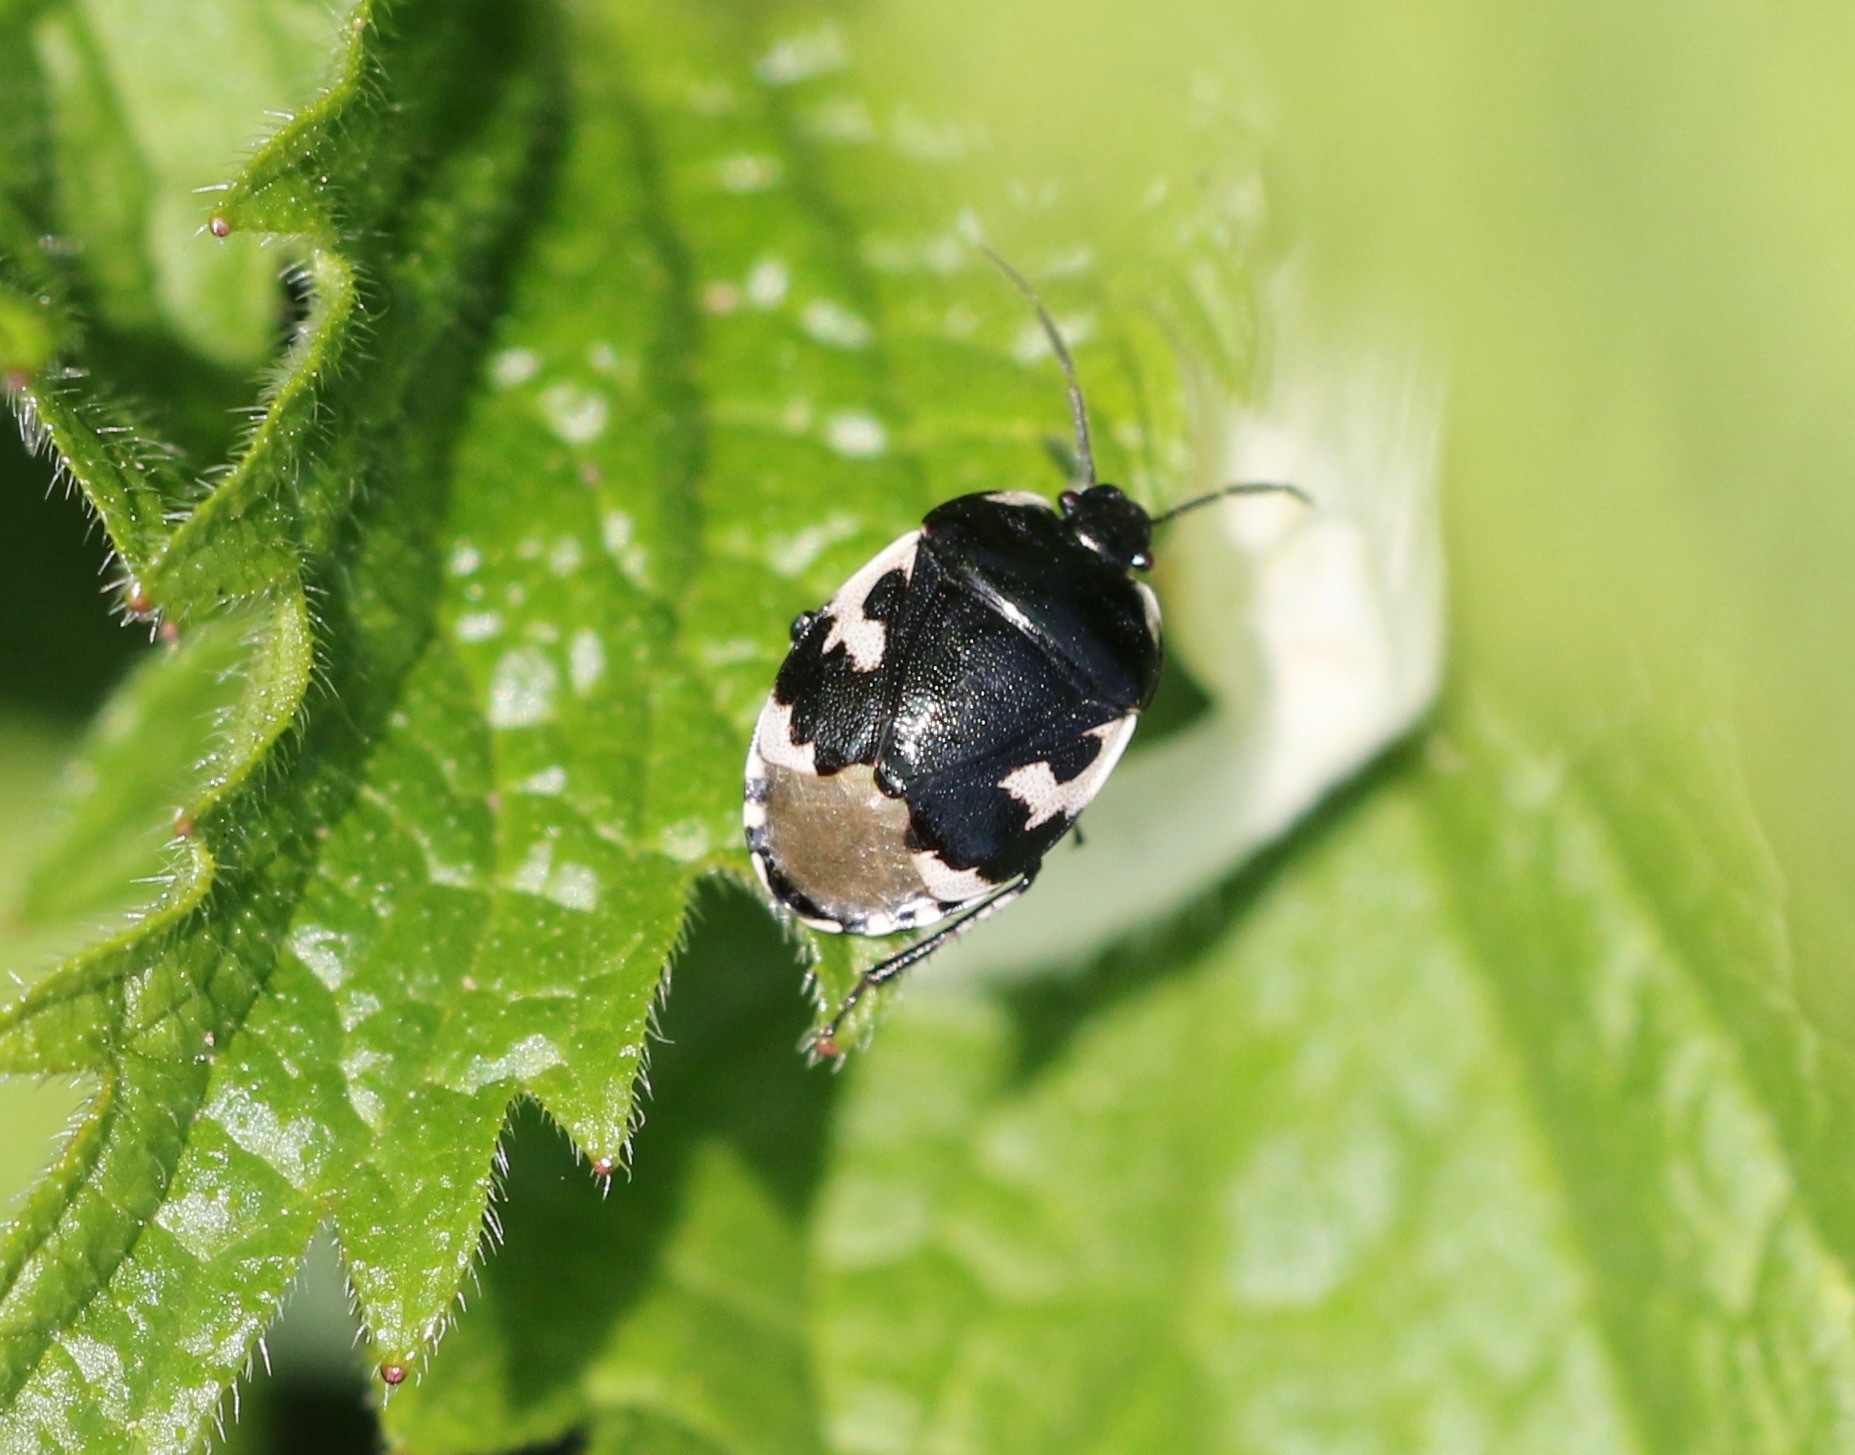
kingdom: Animalia
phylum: Arthropoda
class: Insecta
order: Hemiptera
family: Cydnidae
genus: Tritomegas
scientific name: Tritomegas bicolor
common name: Pied shieldbug
